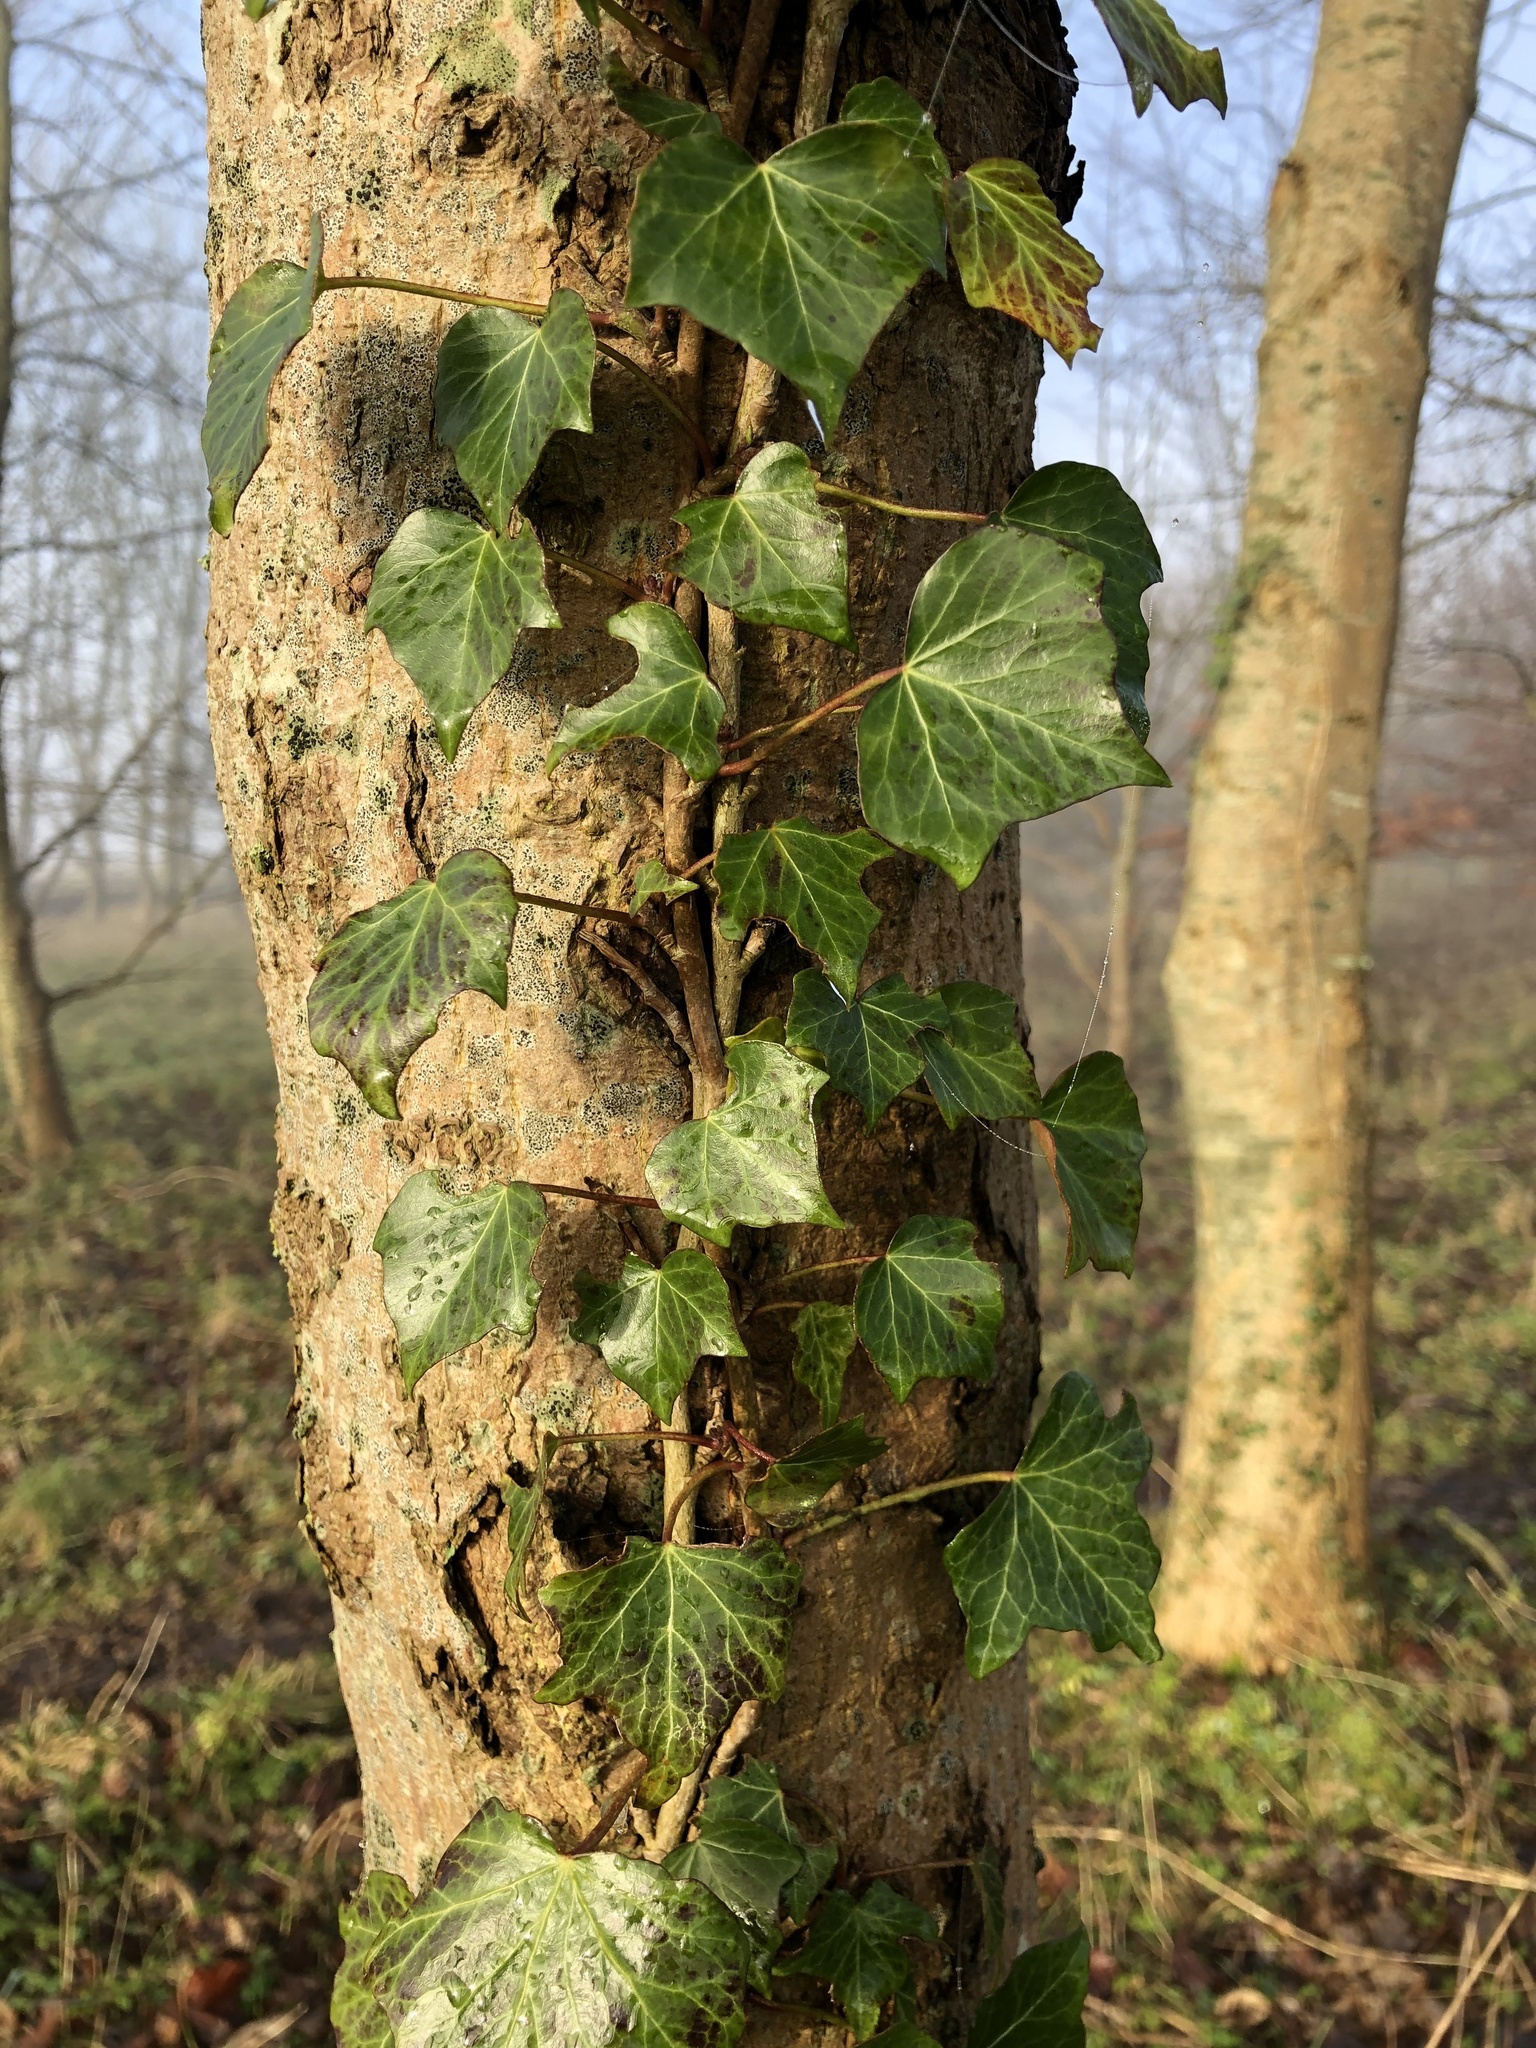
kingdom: Plantae
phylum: Tracheophyta
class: Magnoliopsida
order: Apiales
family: Araliaceae
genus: Hedera
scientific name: Hedera helix
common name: Ivy
